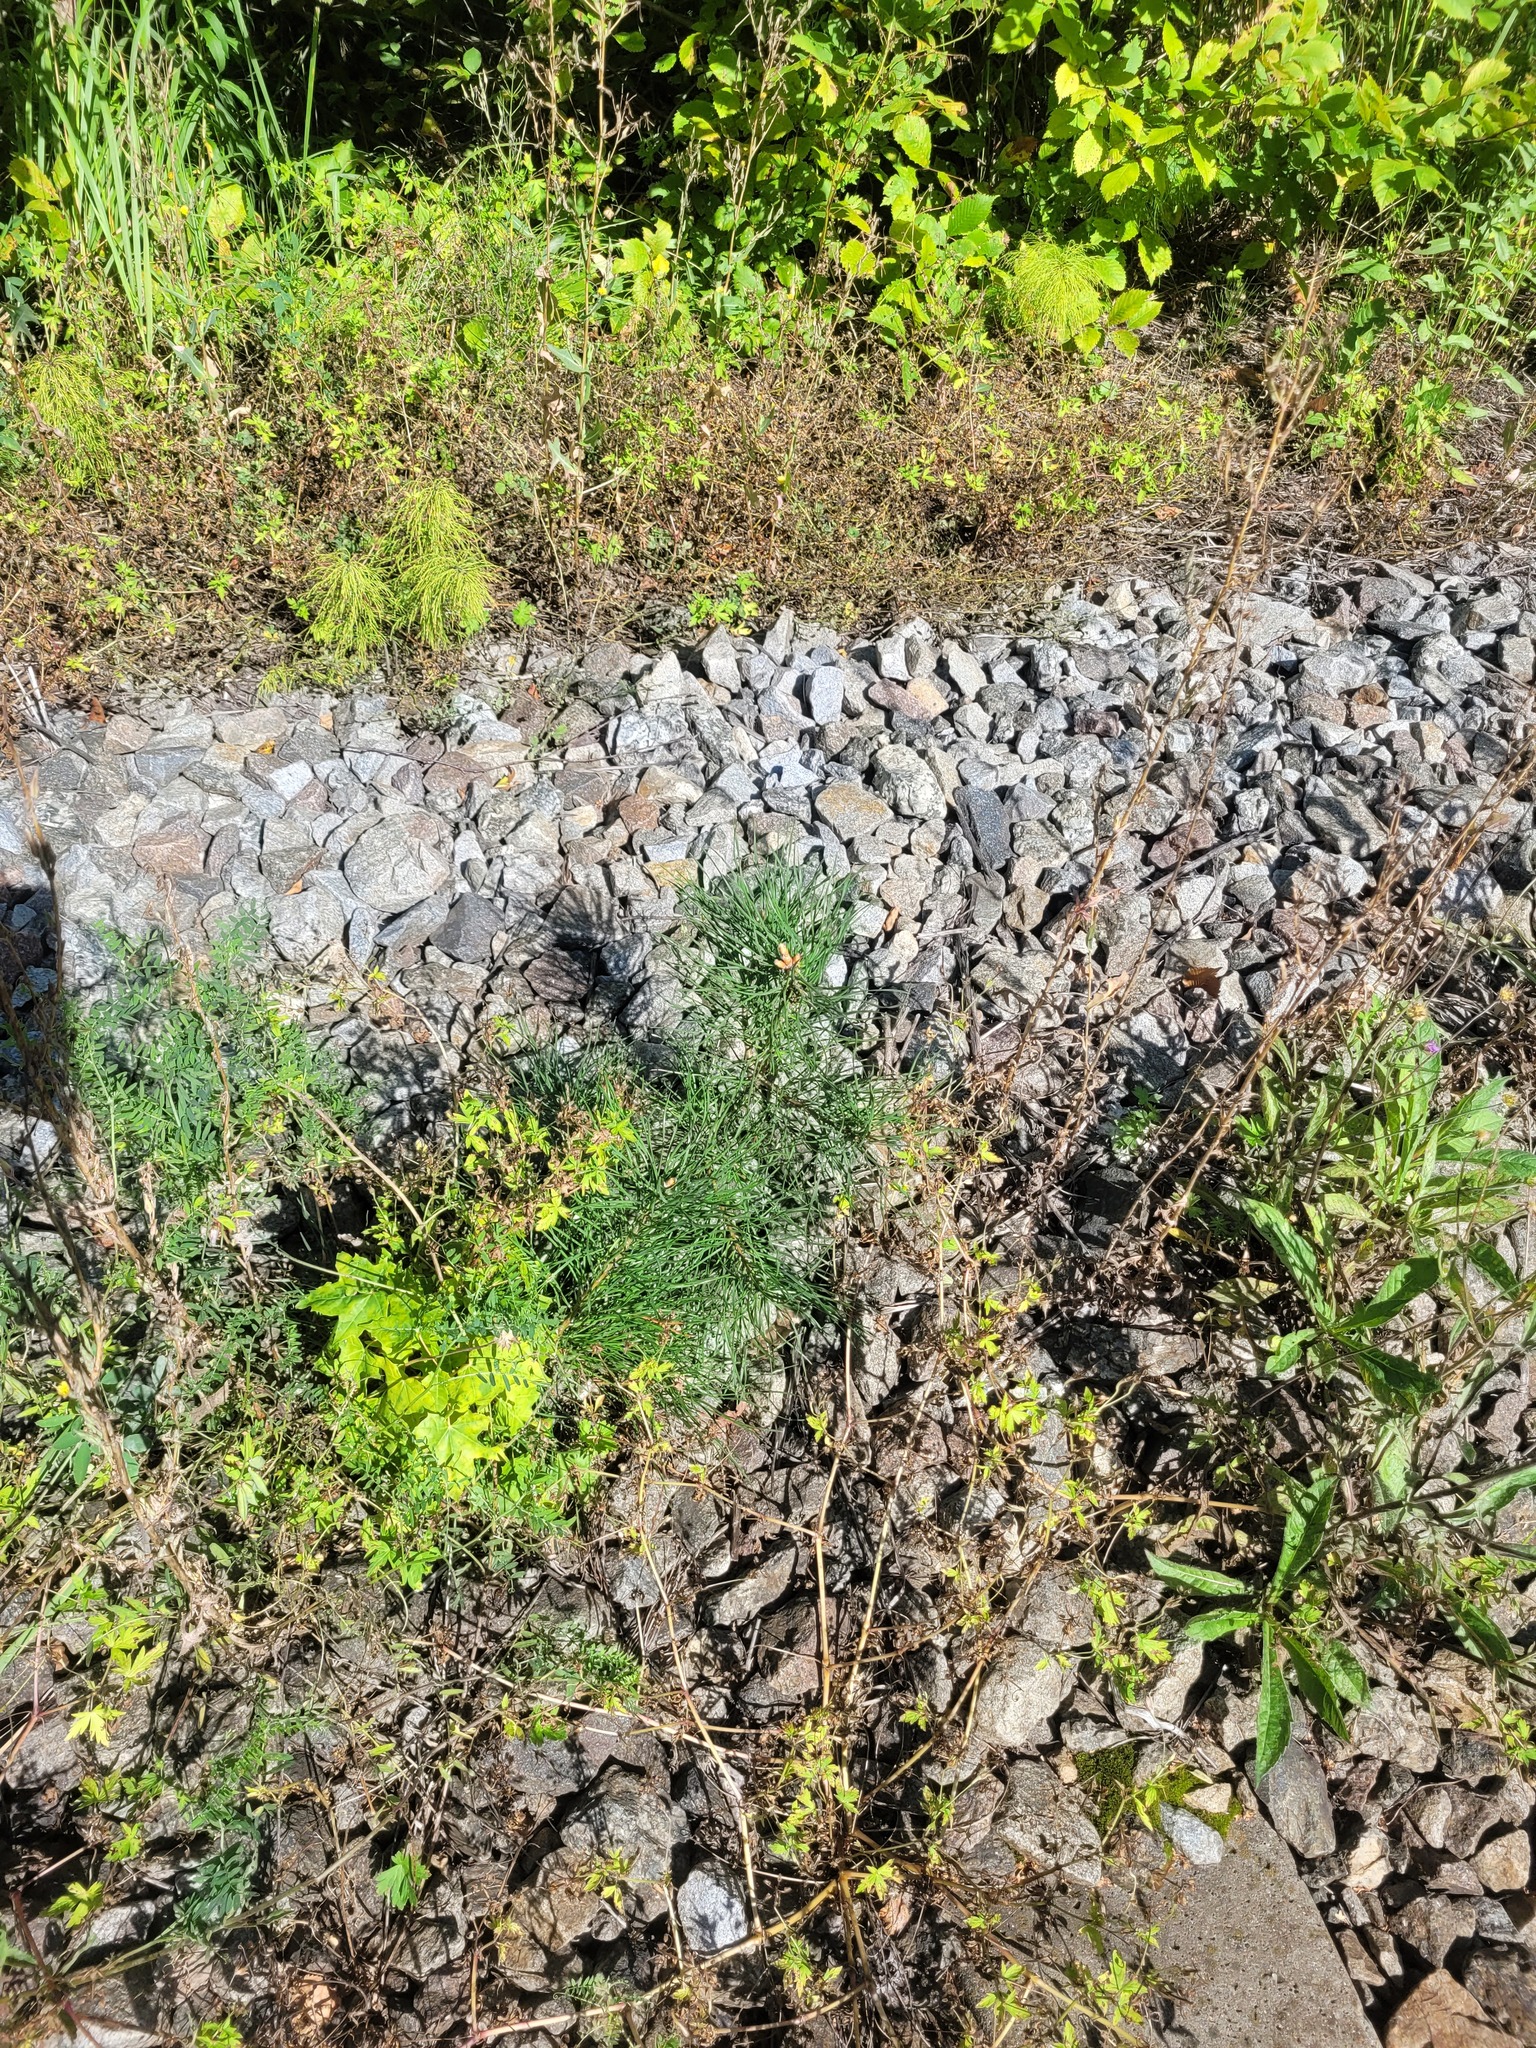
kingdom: Plantae
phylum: Tracheophyta
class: Pinopsida
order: Pinales
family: Pinaceae
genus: Pinus
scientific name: Pinus sylvestris
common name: Scots pine
